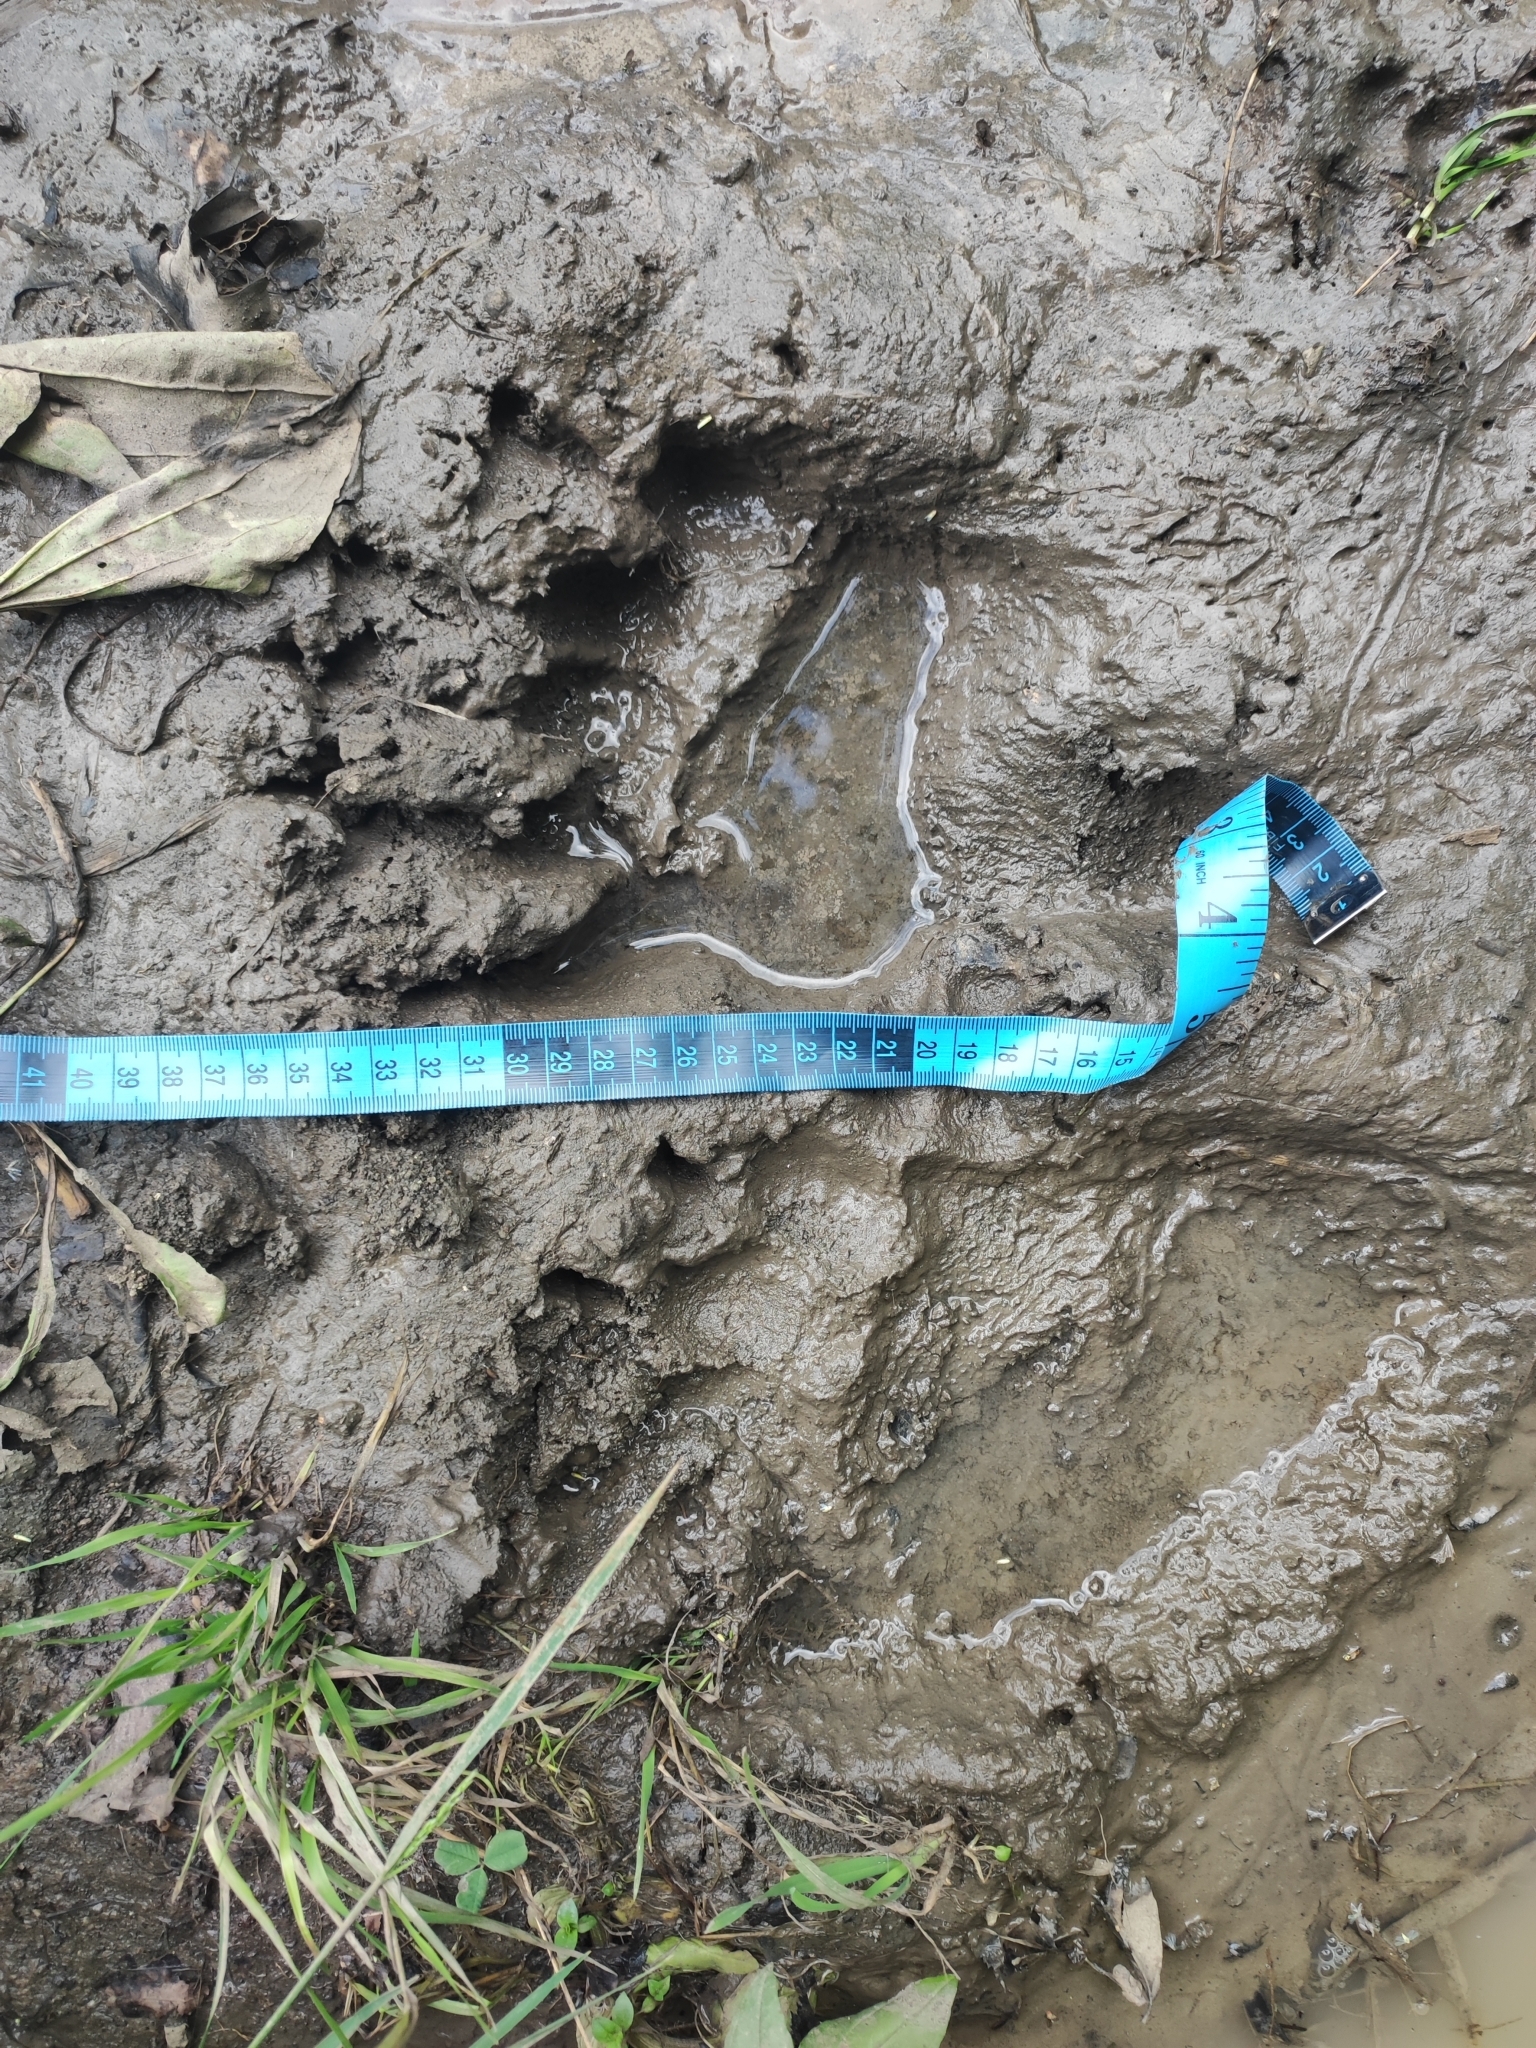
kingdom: Animalia
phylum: Chordata
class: Mammalia
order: Carnivora
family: Ursidae
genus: Ursus
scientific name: Ursus arctos
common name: Brown bear
